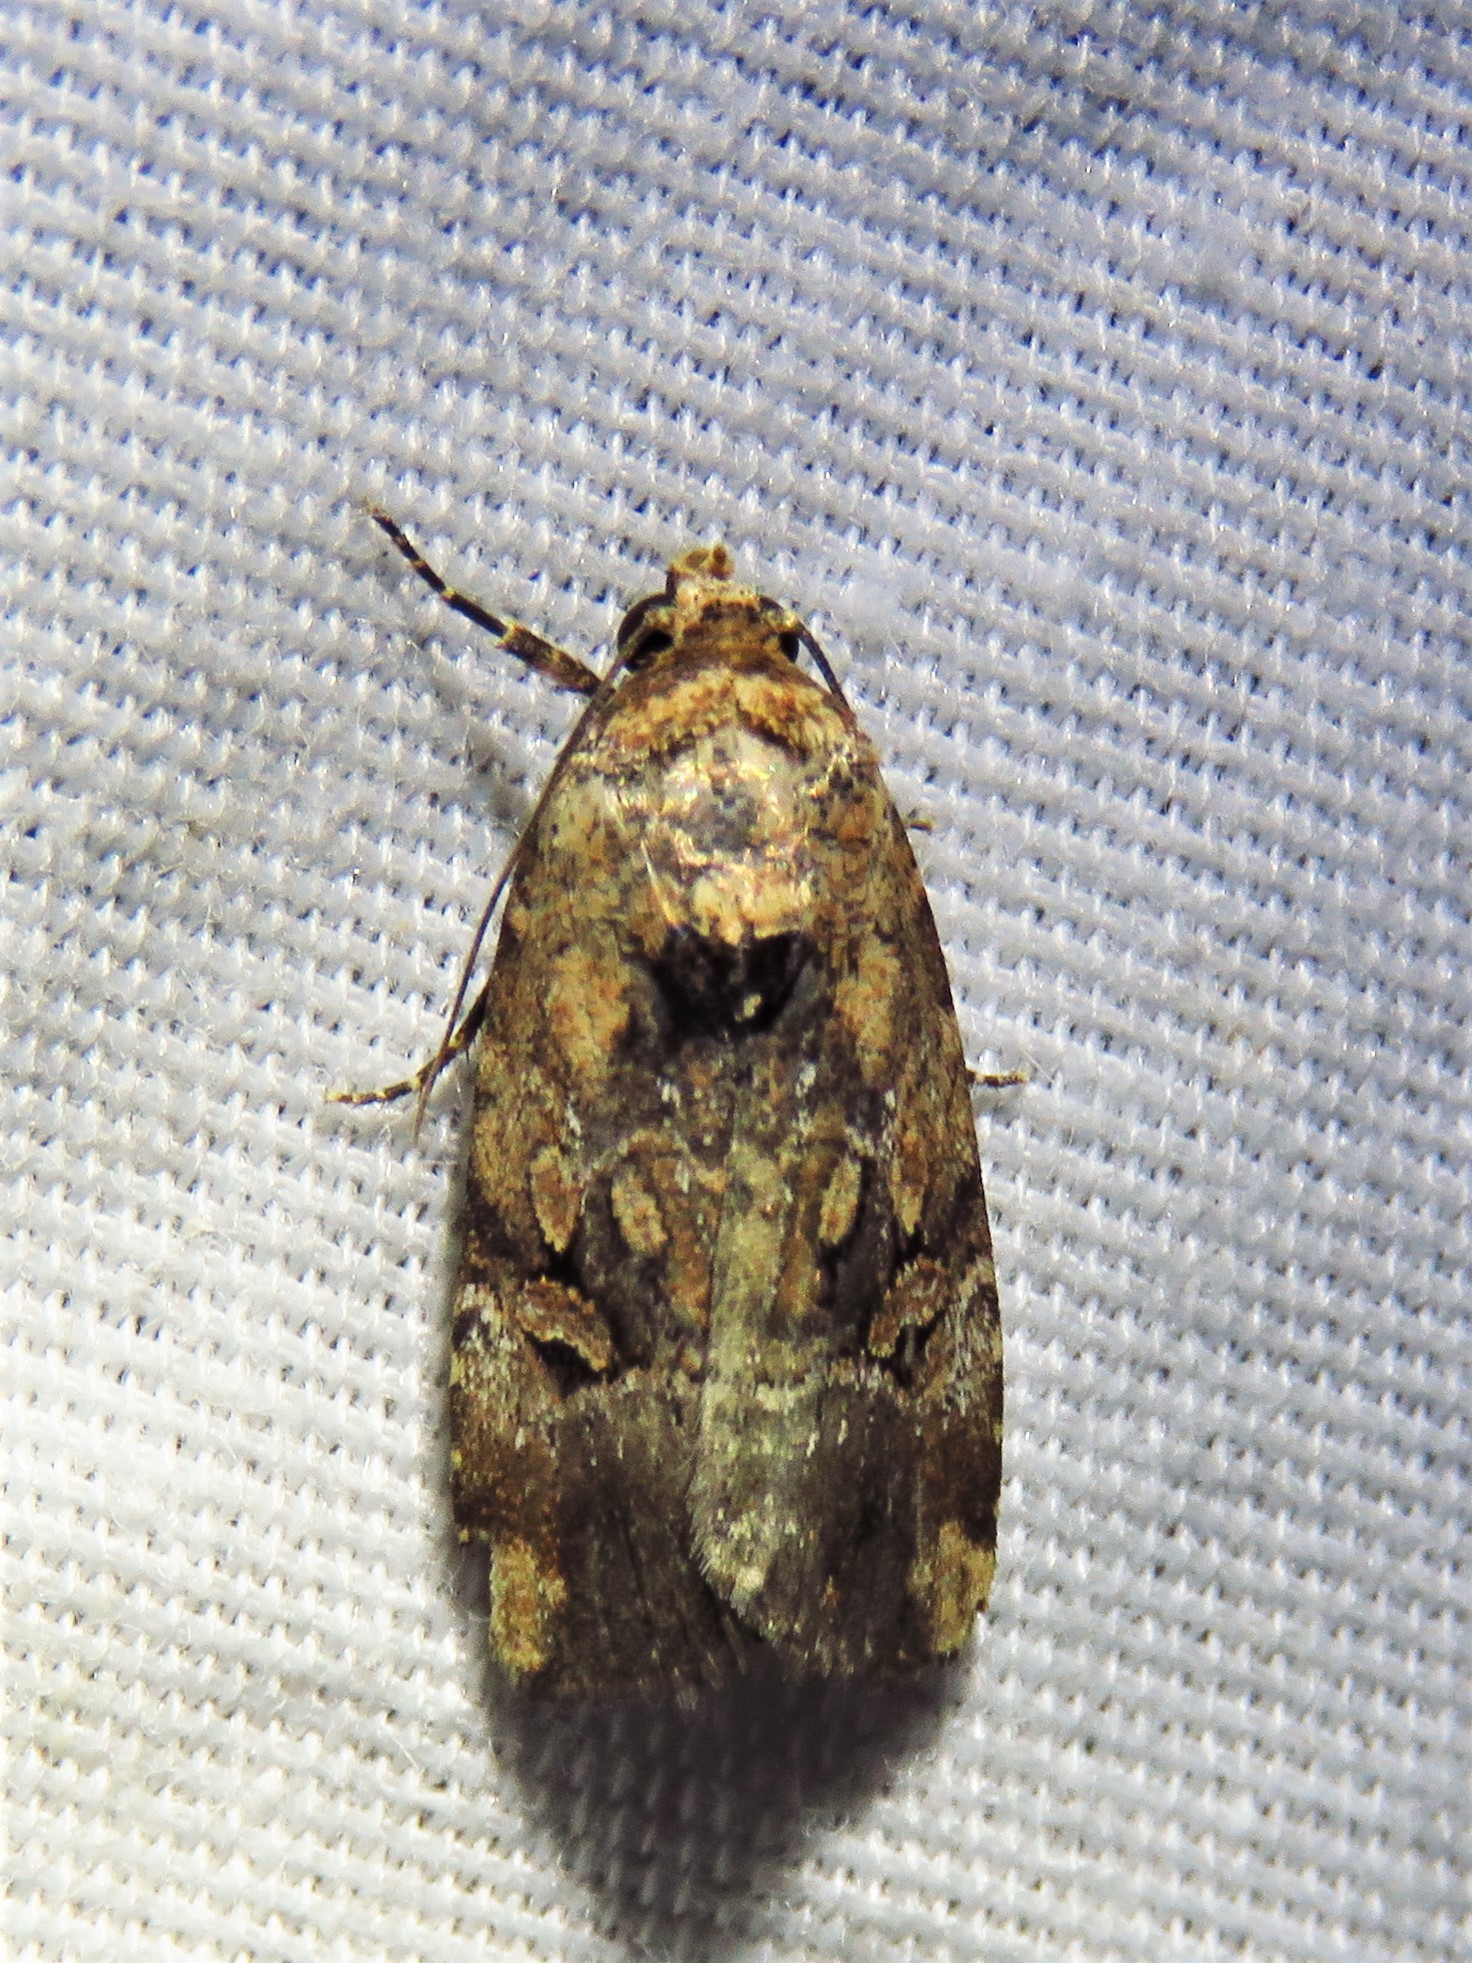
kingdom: Animalia
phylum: Arthropoda
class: Insecta
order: Lepidoptera
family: Noctuidae
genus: Elaphria
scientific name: Elaphria chalcedonia
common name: Chalcedony midget
